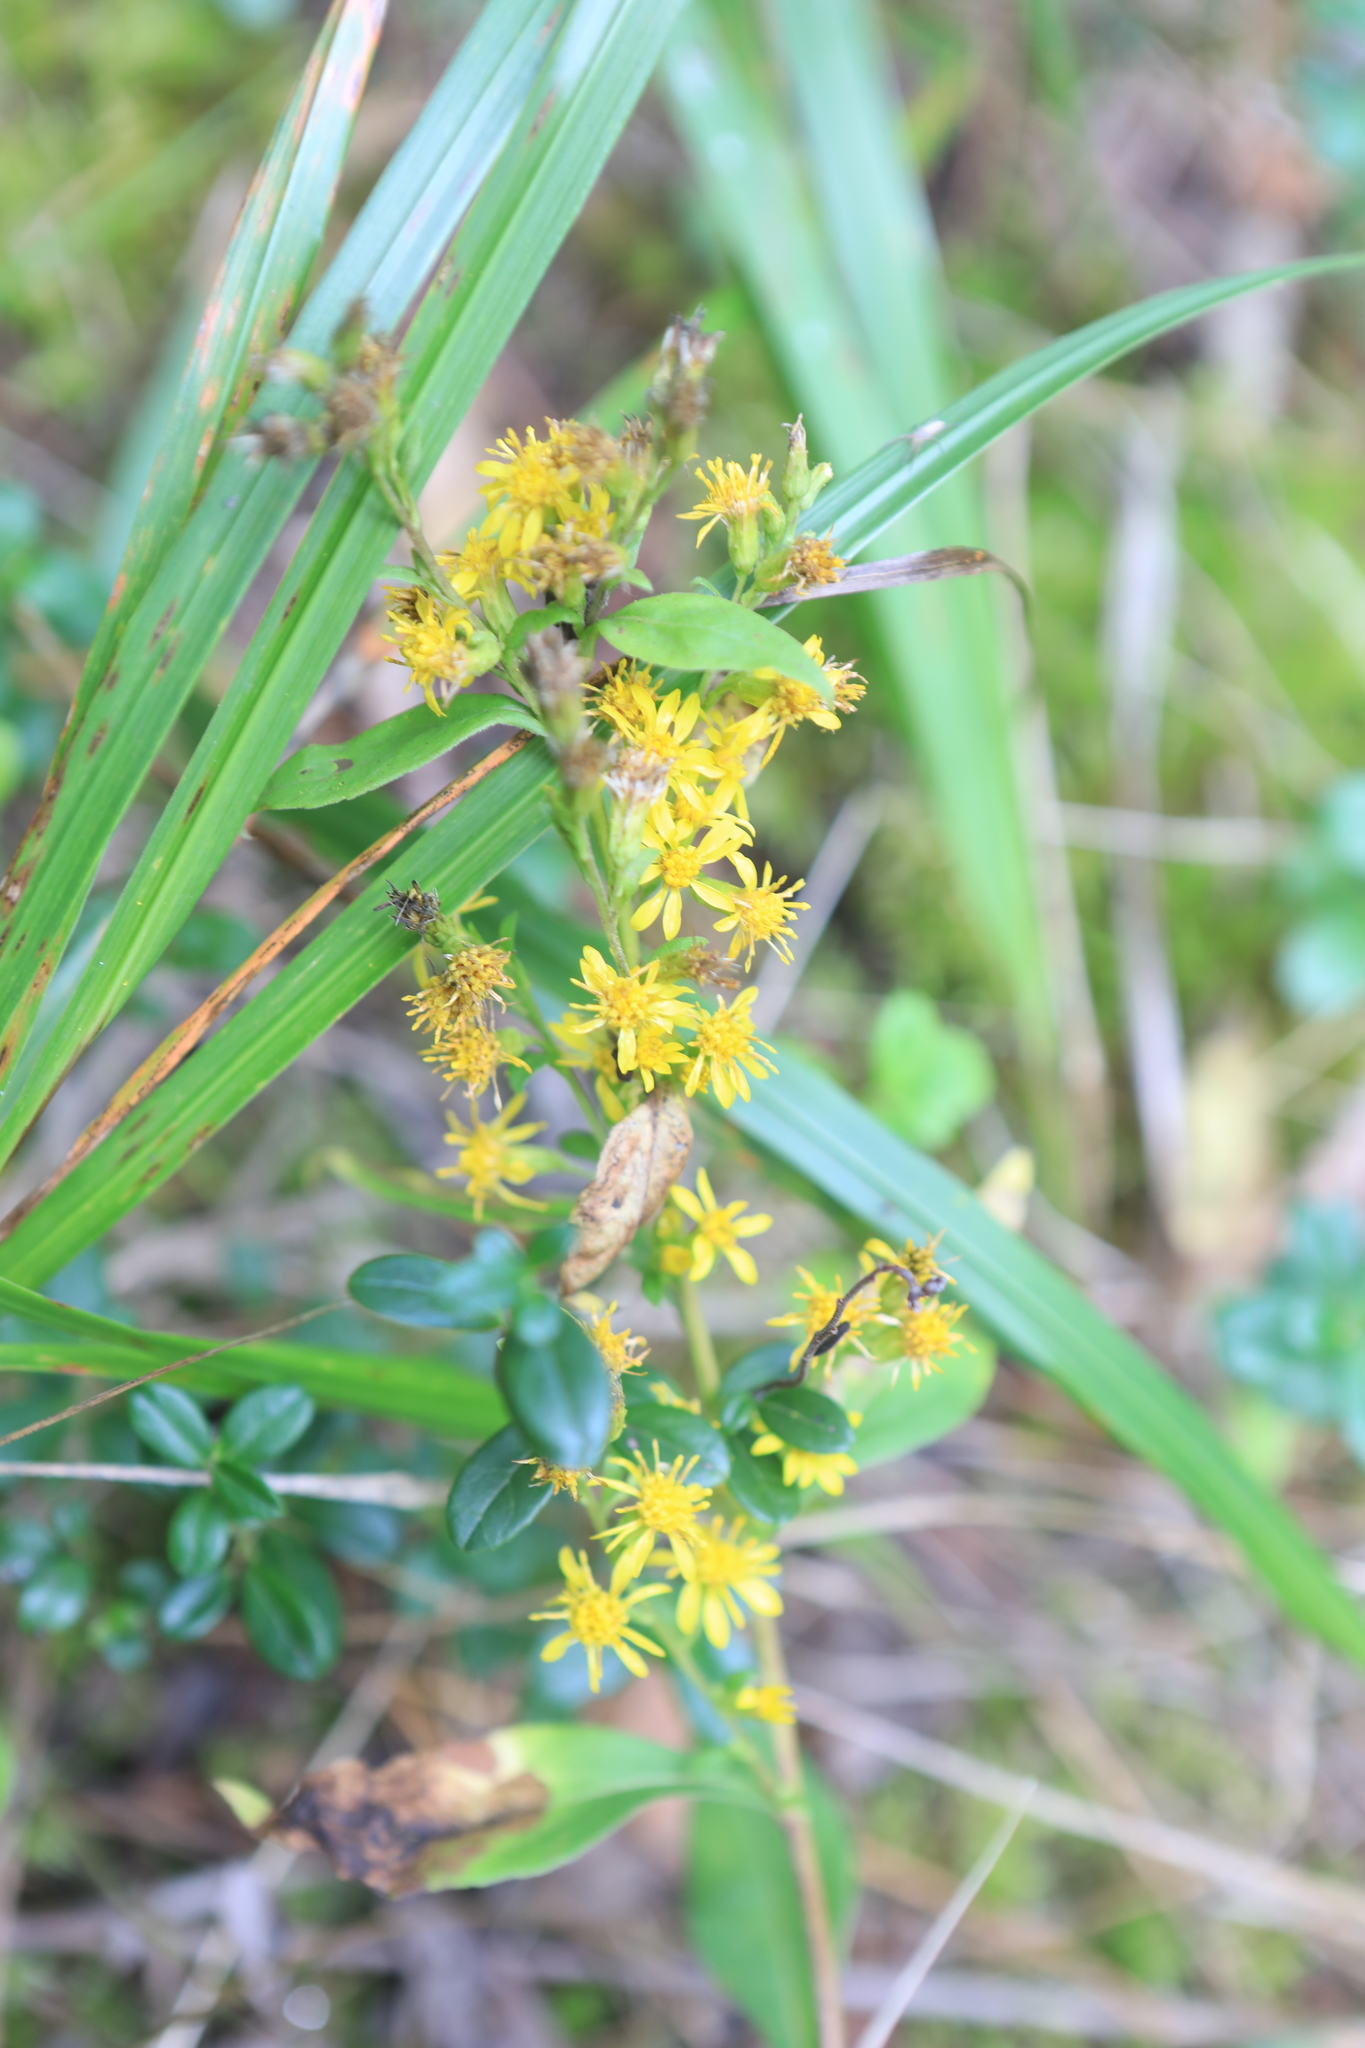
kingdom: Plantae
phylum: Tracheophyta
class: Magnoliopsida
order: Asterales
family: Asteraceae
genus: Solidago
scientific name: Solidago virgaurea
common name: Goldenrod
